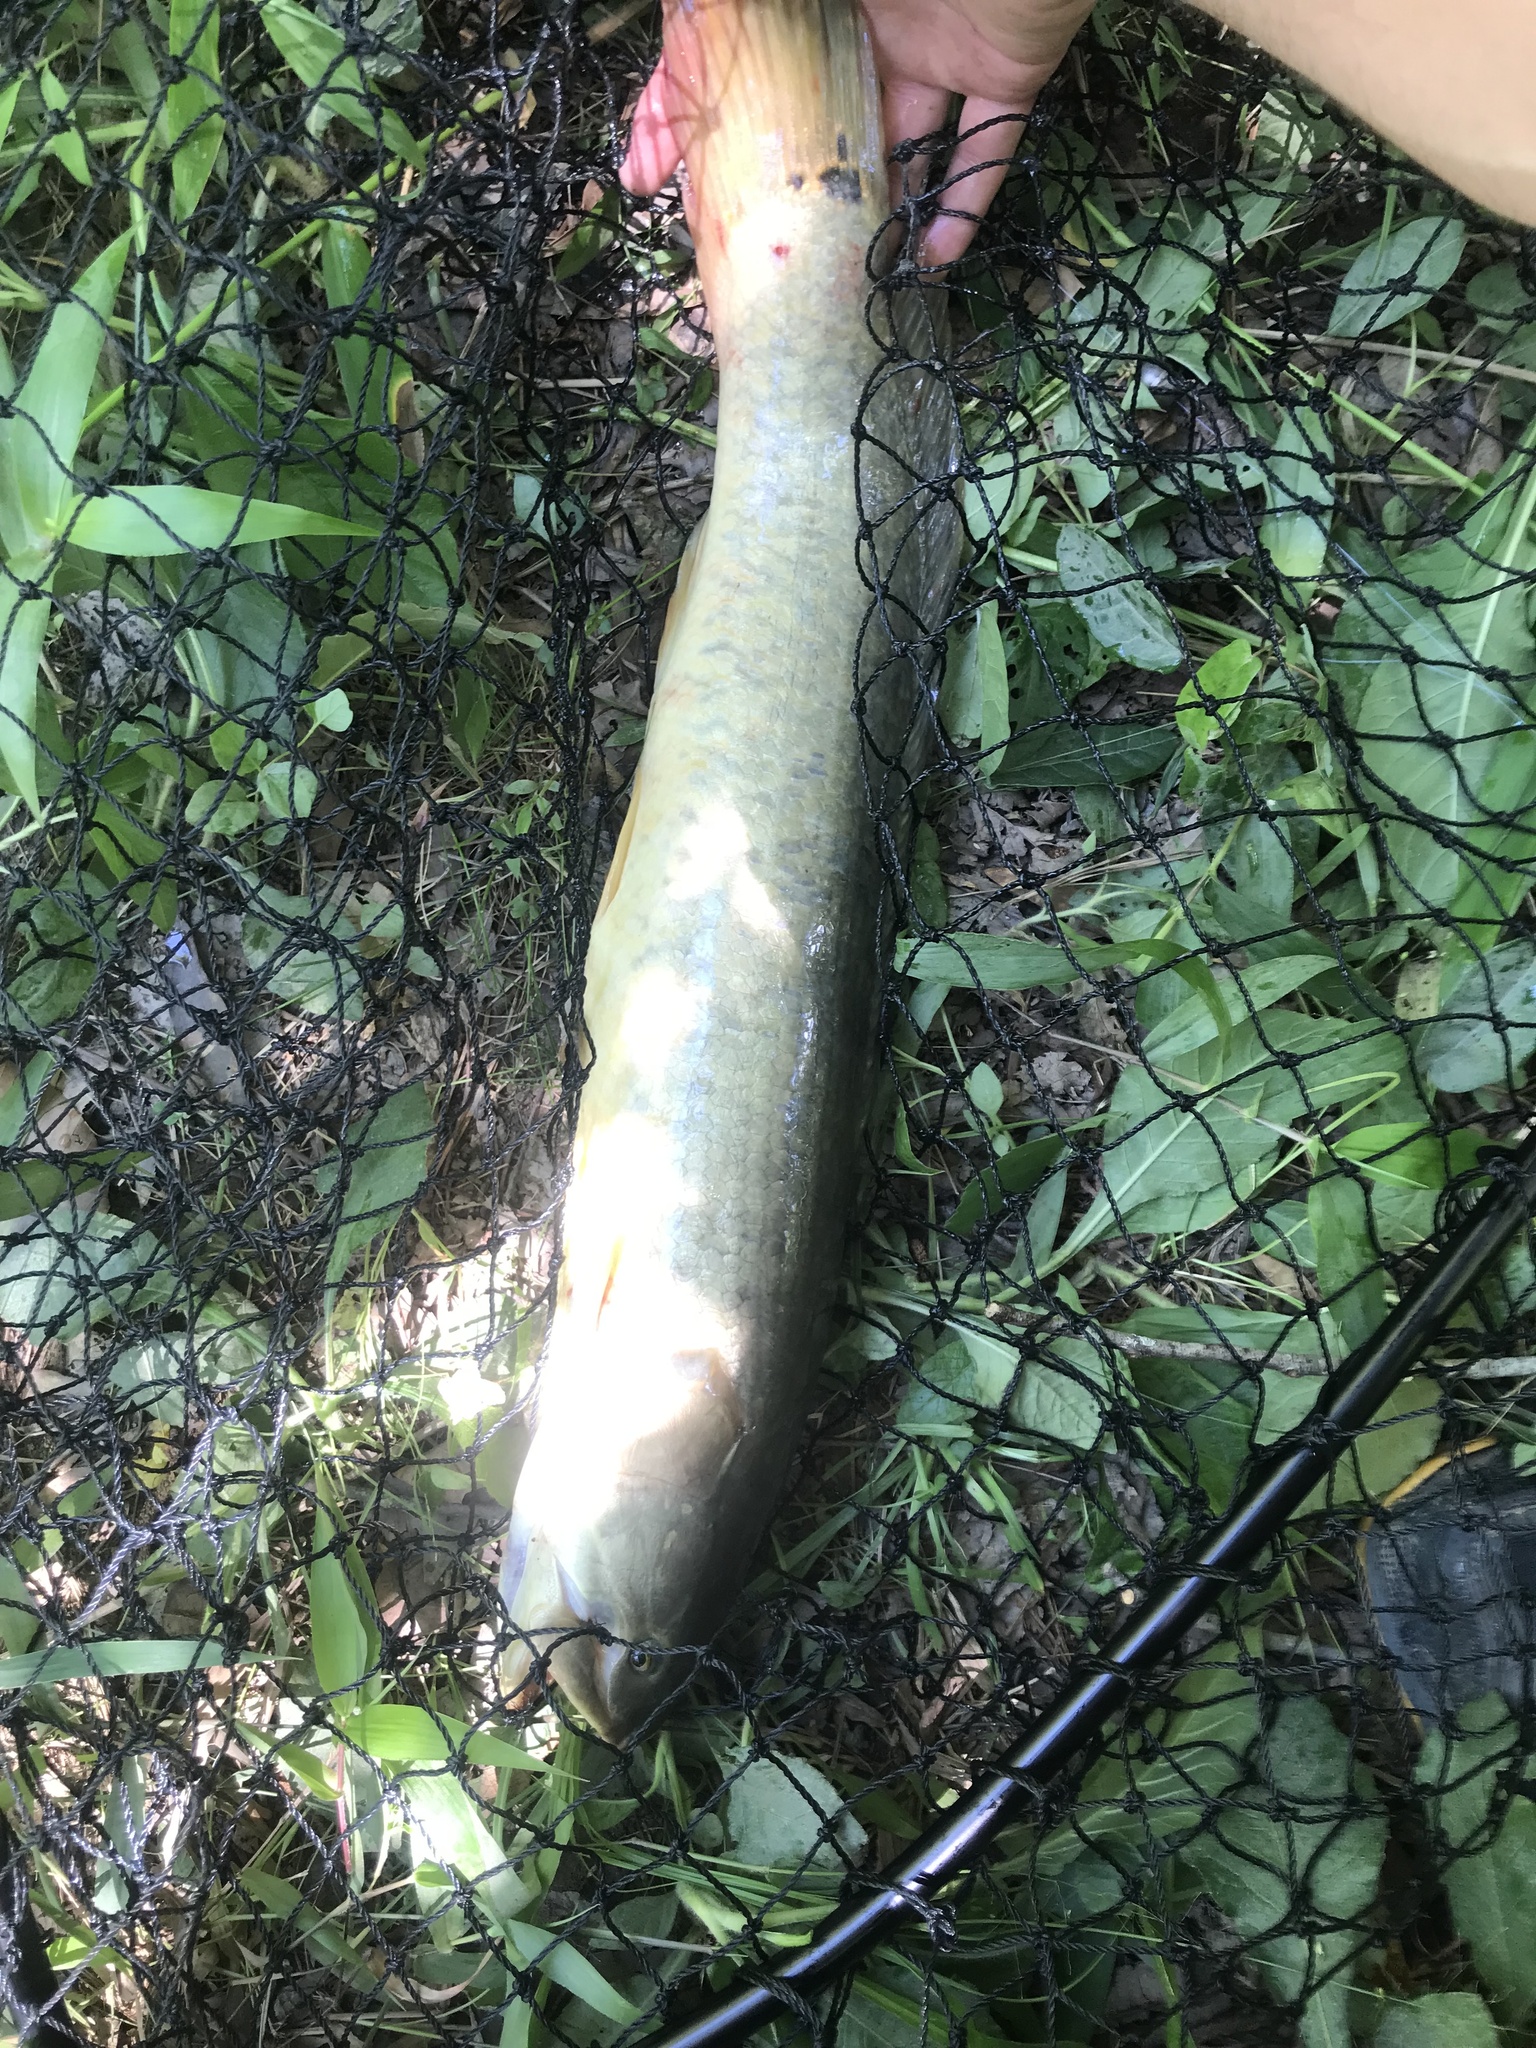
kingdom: Animalia
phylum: Chordata
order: Amiiformes
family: Amiidae
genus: Amia
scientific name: Amia calva
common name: Bowfin
